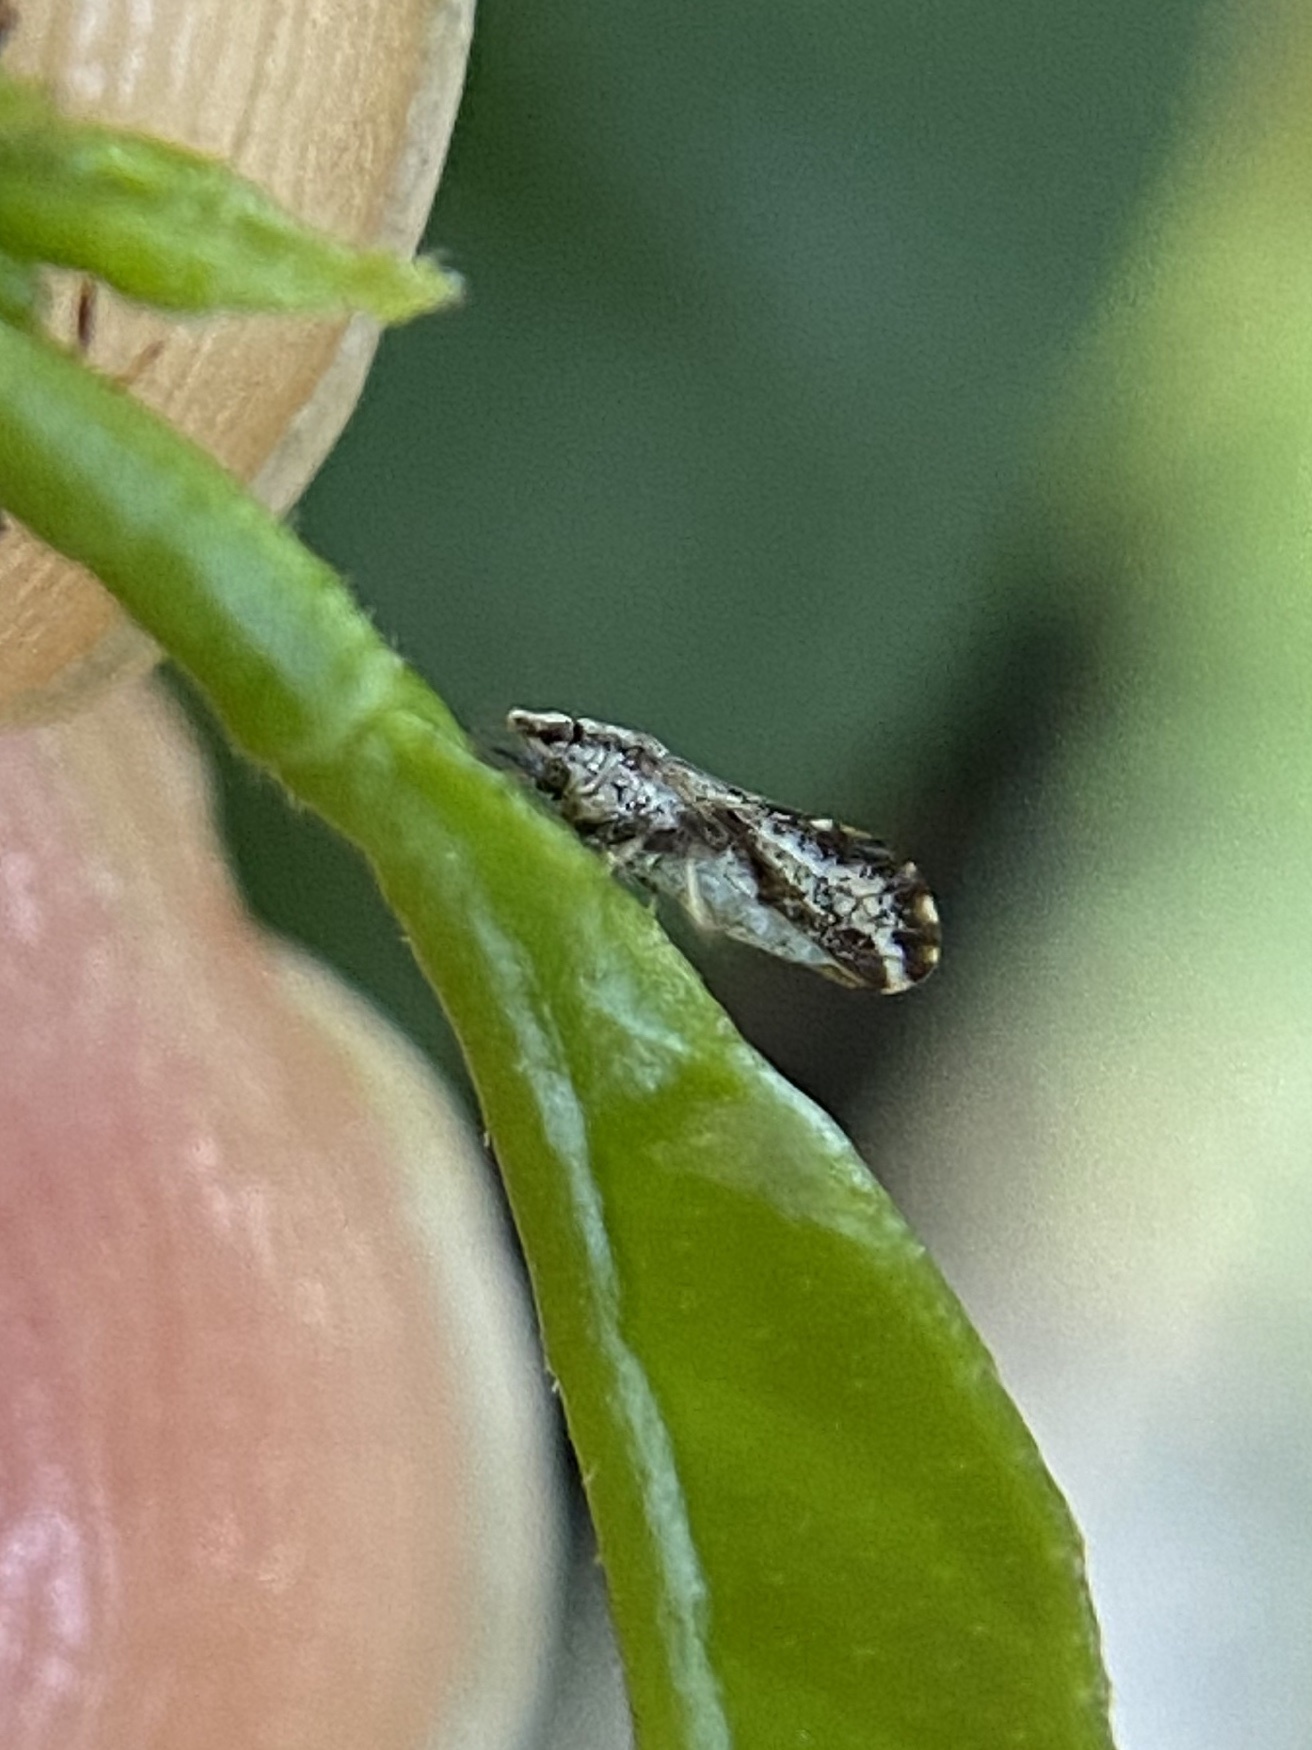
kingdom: Animalia
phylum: Arthropoda
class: Insecta
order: Hemiptera
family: Liviidae
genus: Diaphorina
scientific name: Diaphorina citri
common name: Asian citrus psyllid
